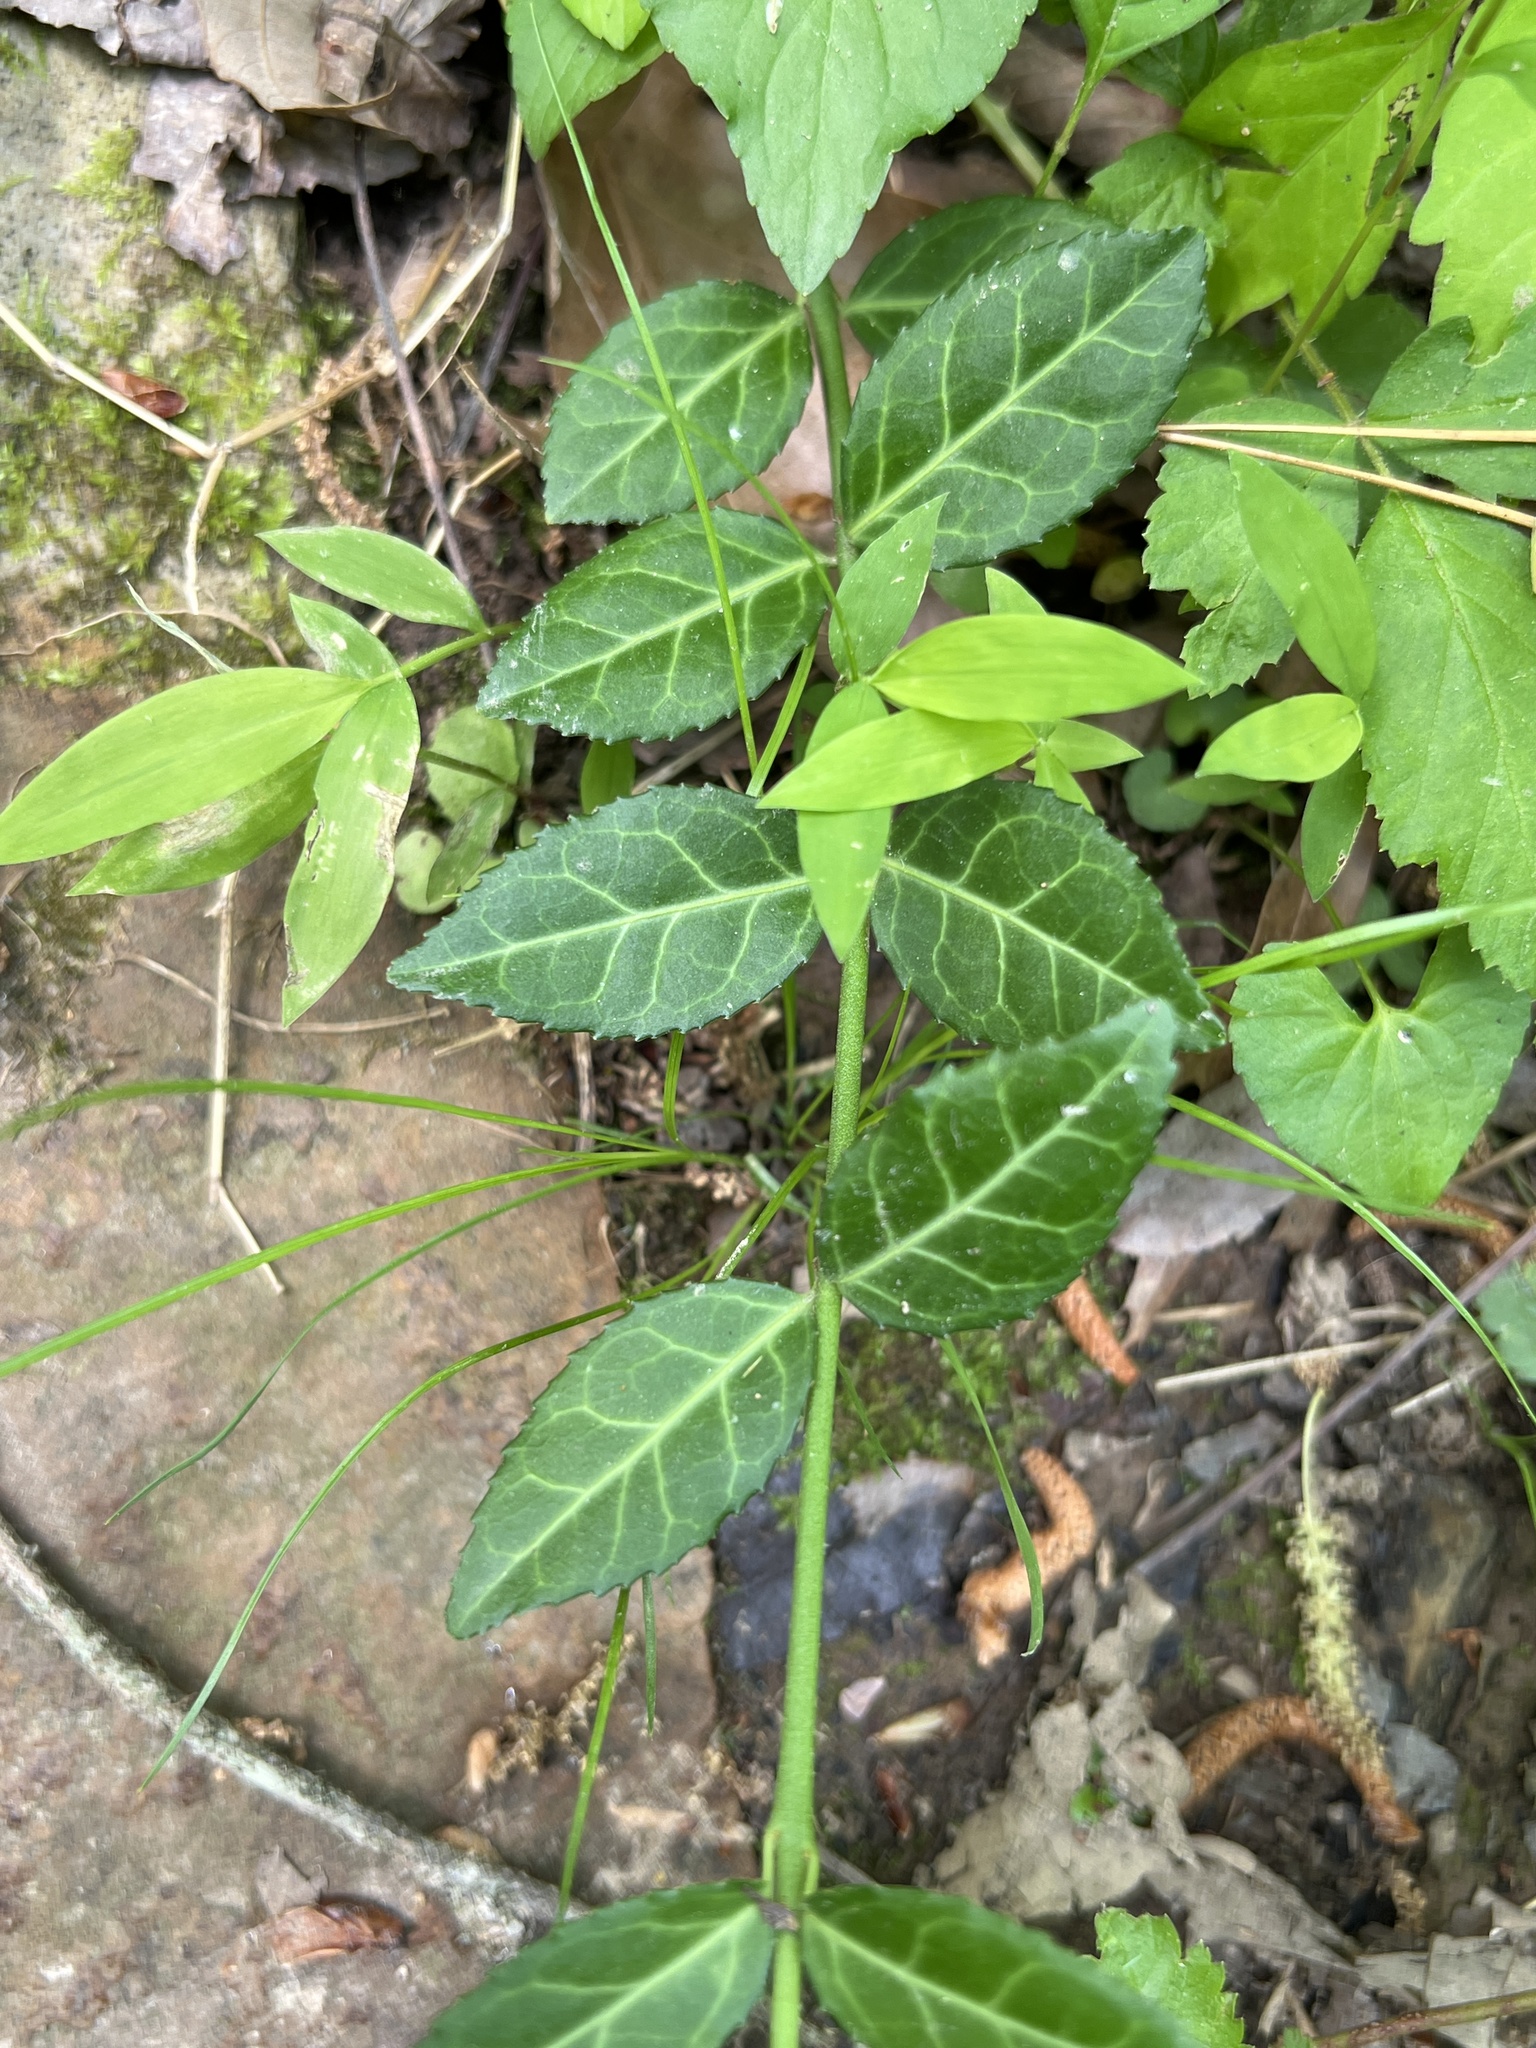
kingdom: Plantae
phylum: Tracheophyta
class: Magnoliopsida
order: Celastrales
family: Celastraceae
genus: Euonymus
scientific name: Euonymus fortunei
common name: Climbing euonymus
